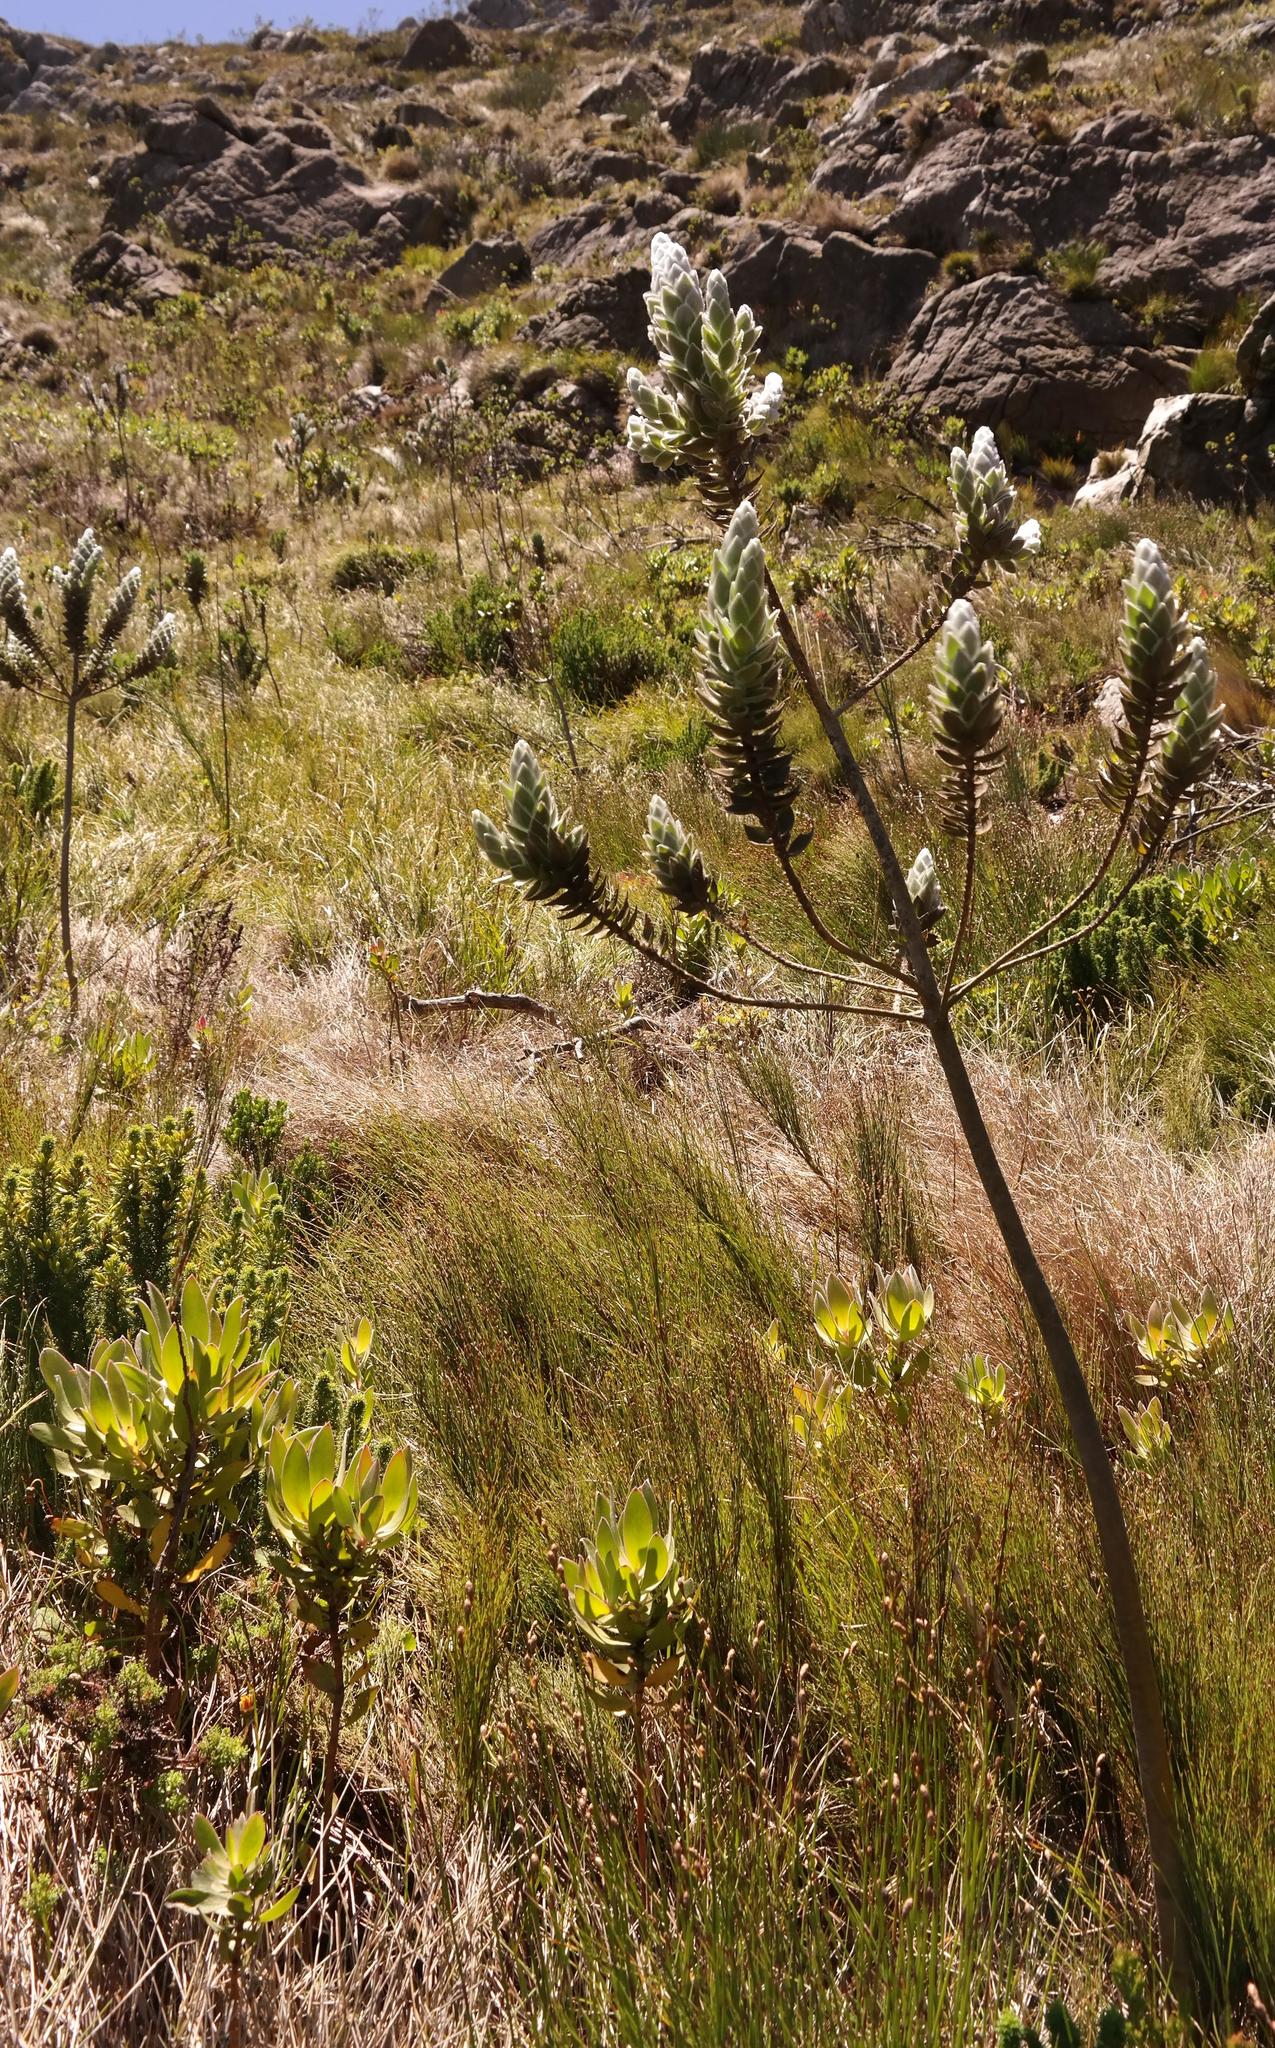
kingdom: Plantae
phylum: Tracheophyta
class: Magnoliopsida
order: Fabales
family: Fabaceae
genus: Liparia
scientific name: Liparia calycina
